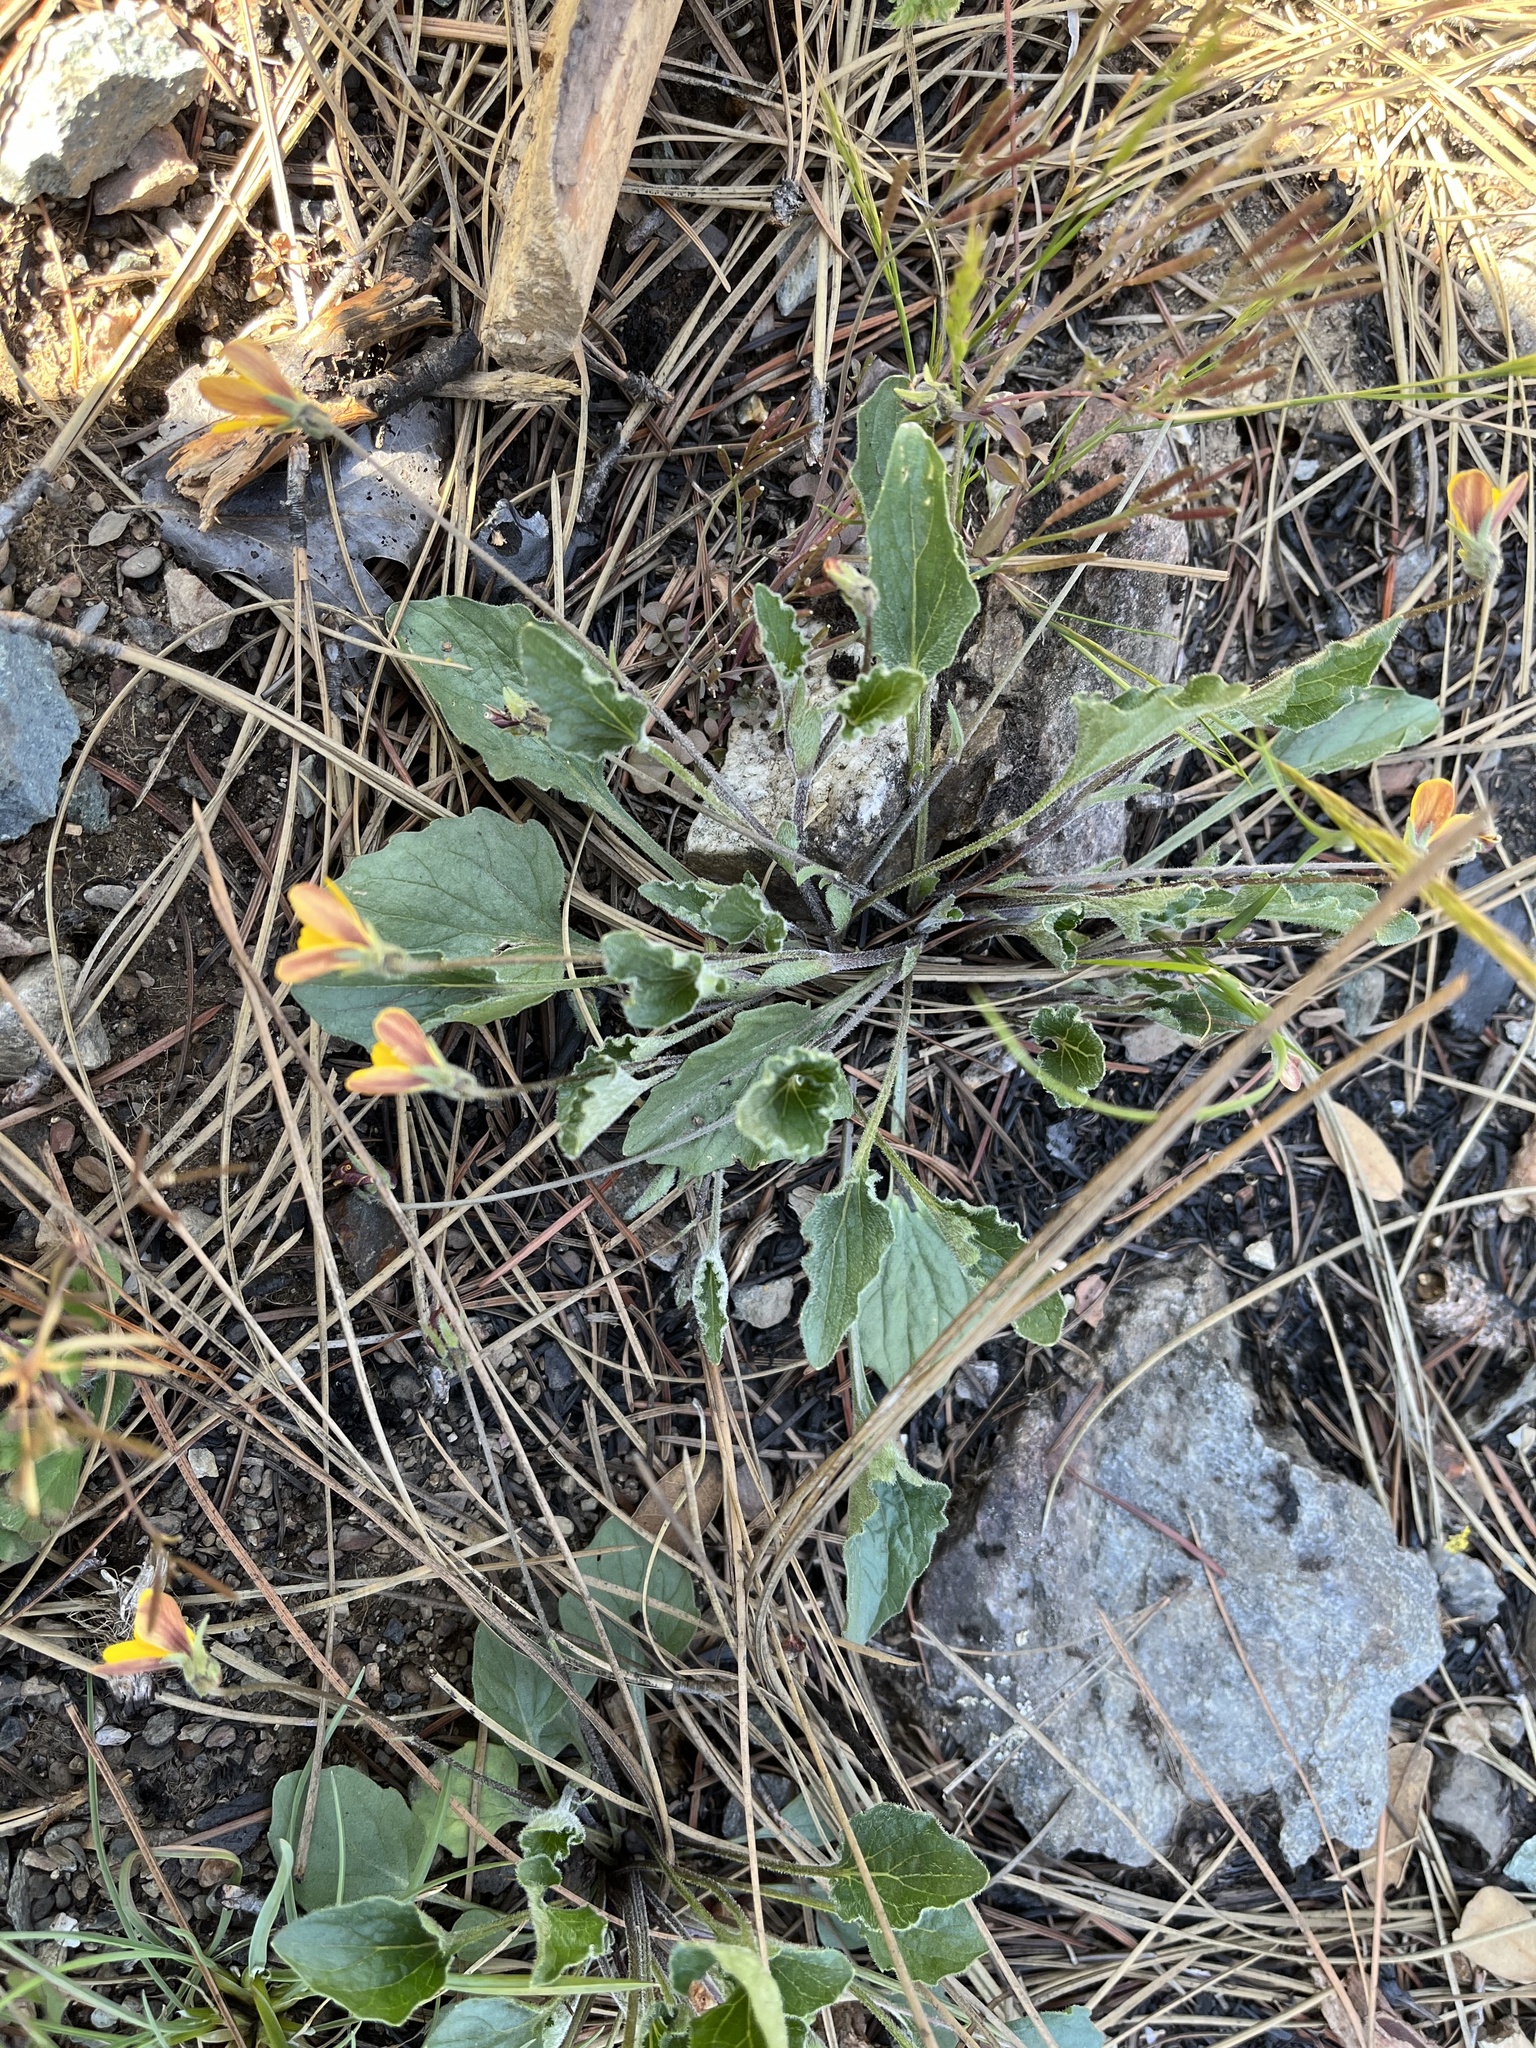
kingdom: Plantae
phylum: Tracheophyta
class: Magnoliopsida
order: Malpighiales
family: Violaceae
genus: Viola
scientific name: Viola quercetorum
